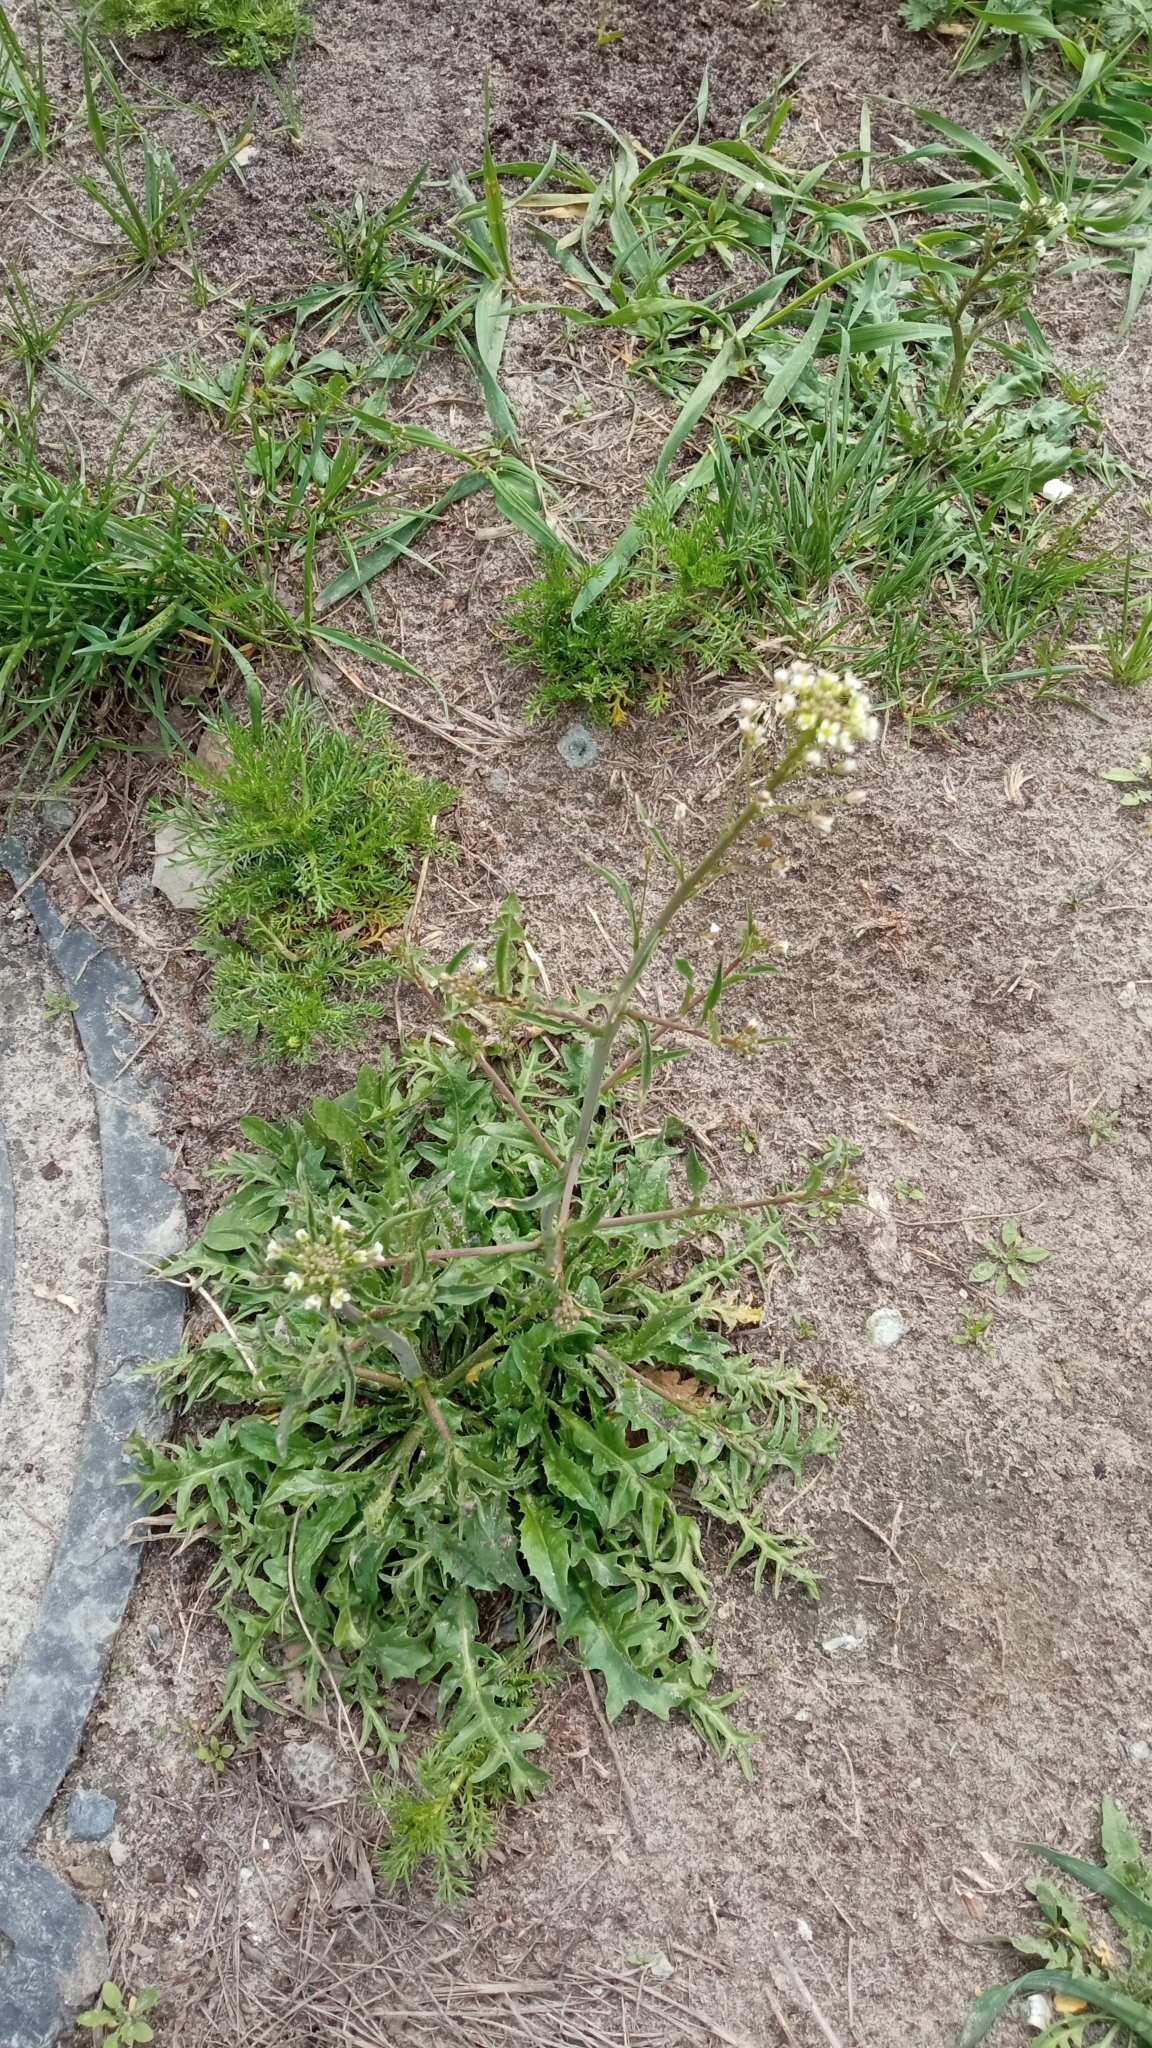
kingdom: Plantae
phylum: Tracheophyta
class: Magnoliopsida
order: Brassicales
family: Brassicaceae
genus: Capsella
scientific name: Capsella bursa-pastoris
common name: Shepherd's purse
